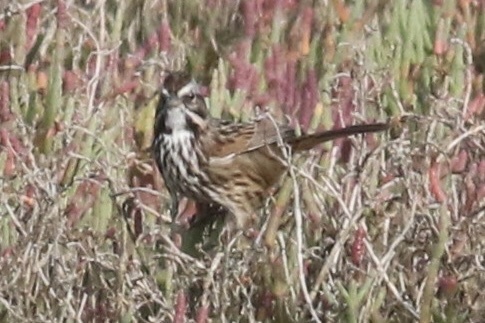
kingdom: Animalia
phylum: Chordata
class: Aves
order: Passeriformes
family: Passerellidae
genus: Melospiza
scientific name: Melospiza melodia
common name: Song sparrow
